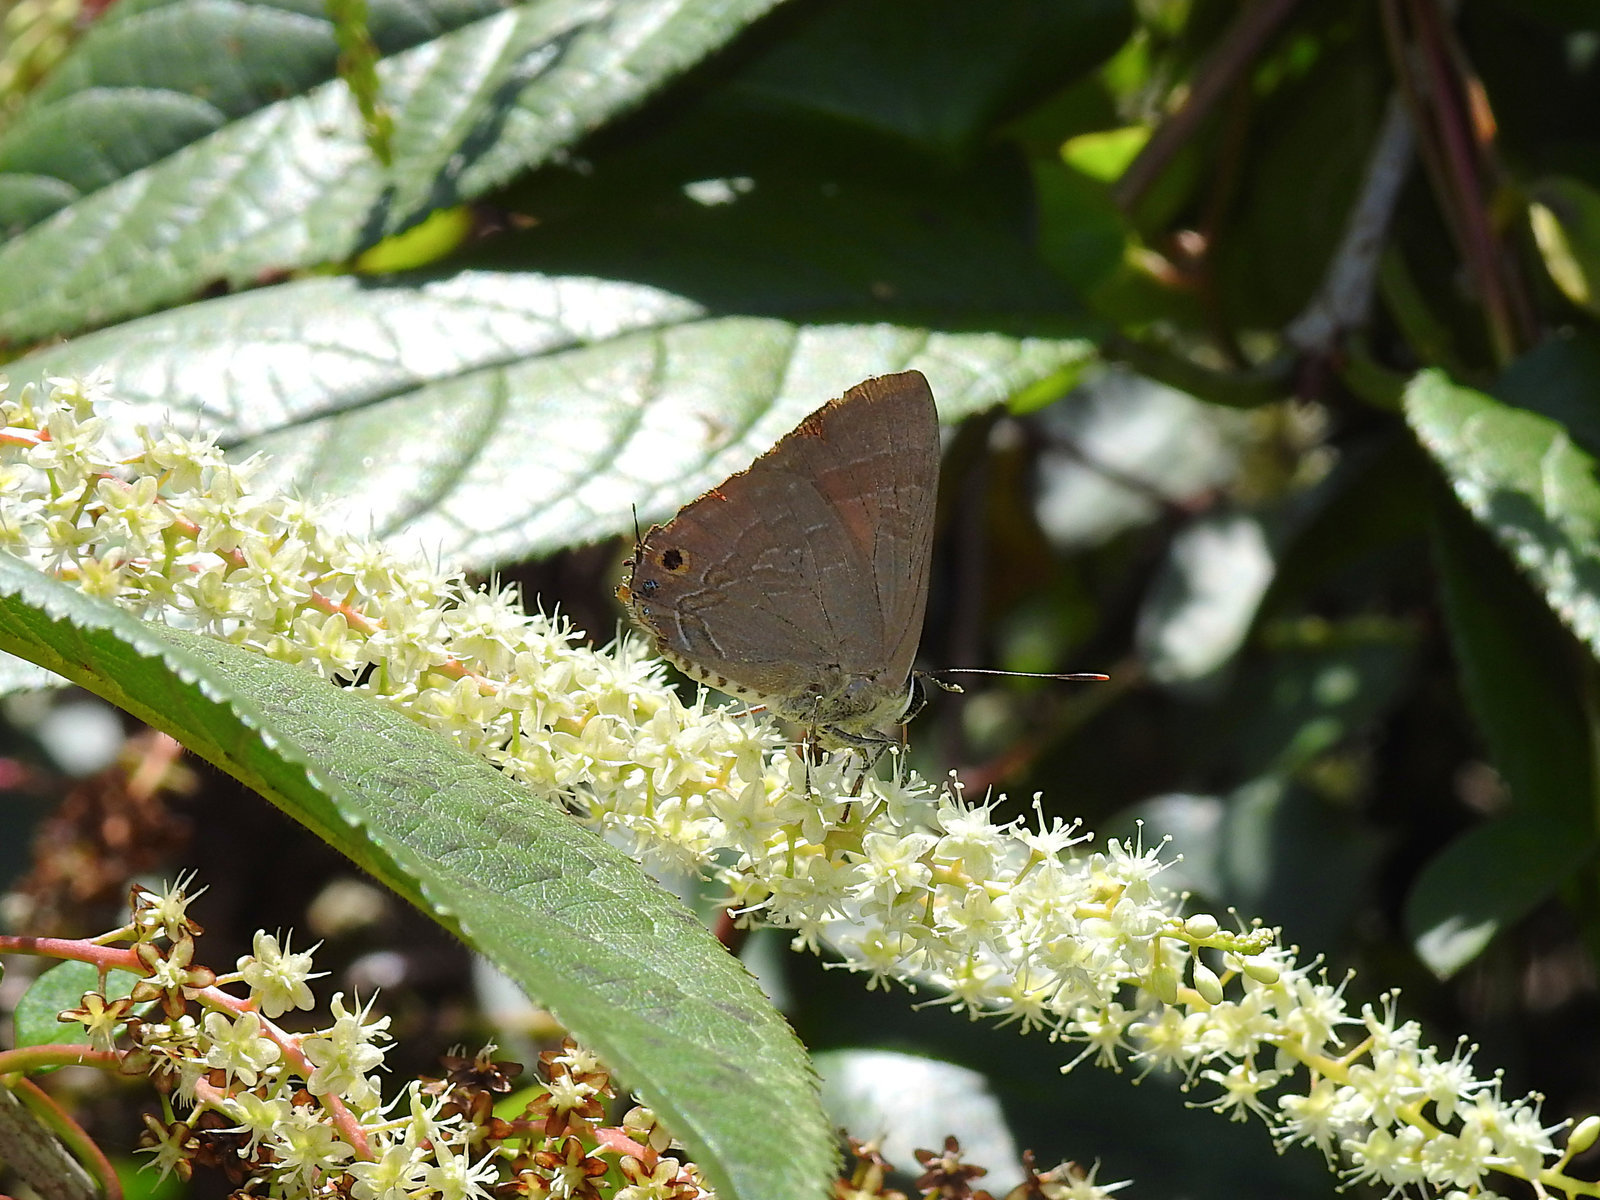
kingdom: Animalia
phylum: Arthropoda
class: Insecta
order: Lepidoptera
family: Lycaenidae
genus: Deudorix
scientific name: Deudorix epijarbas
